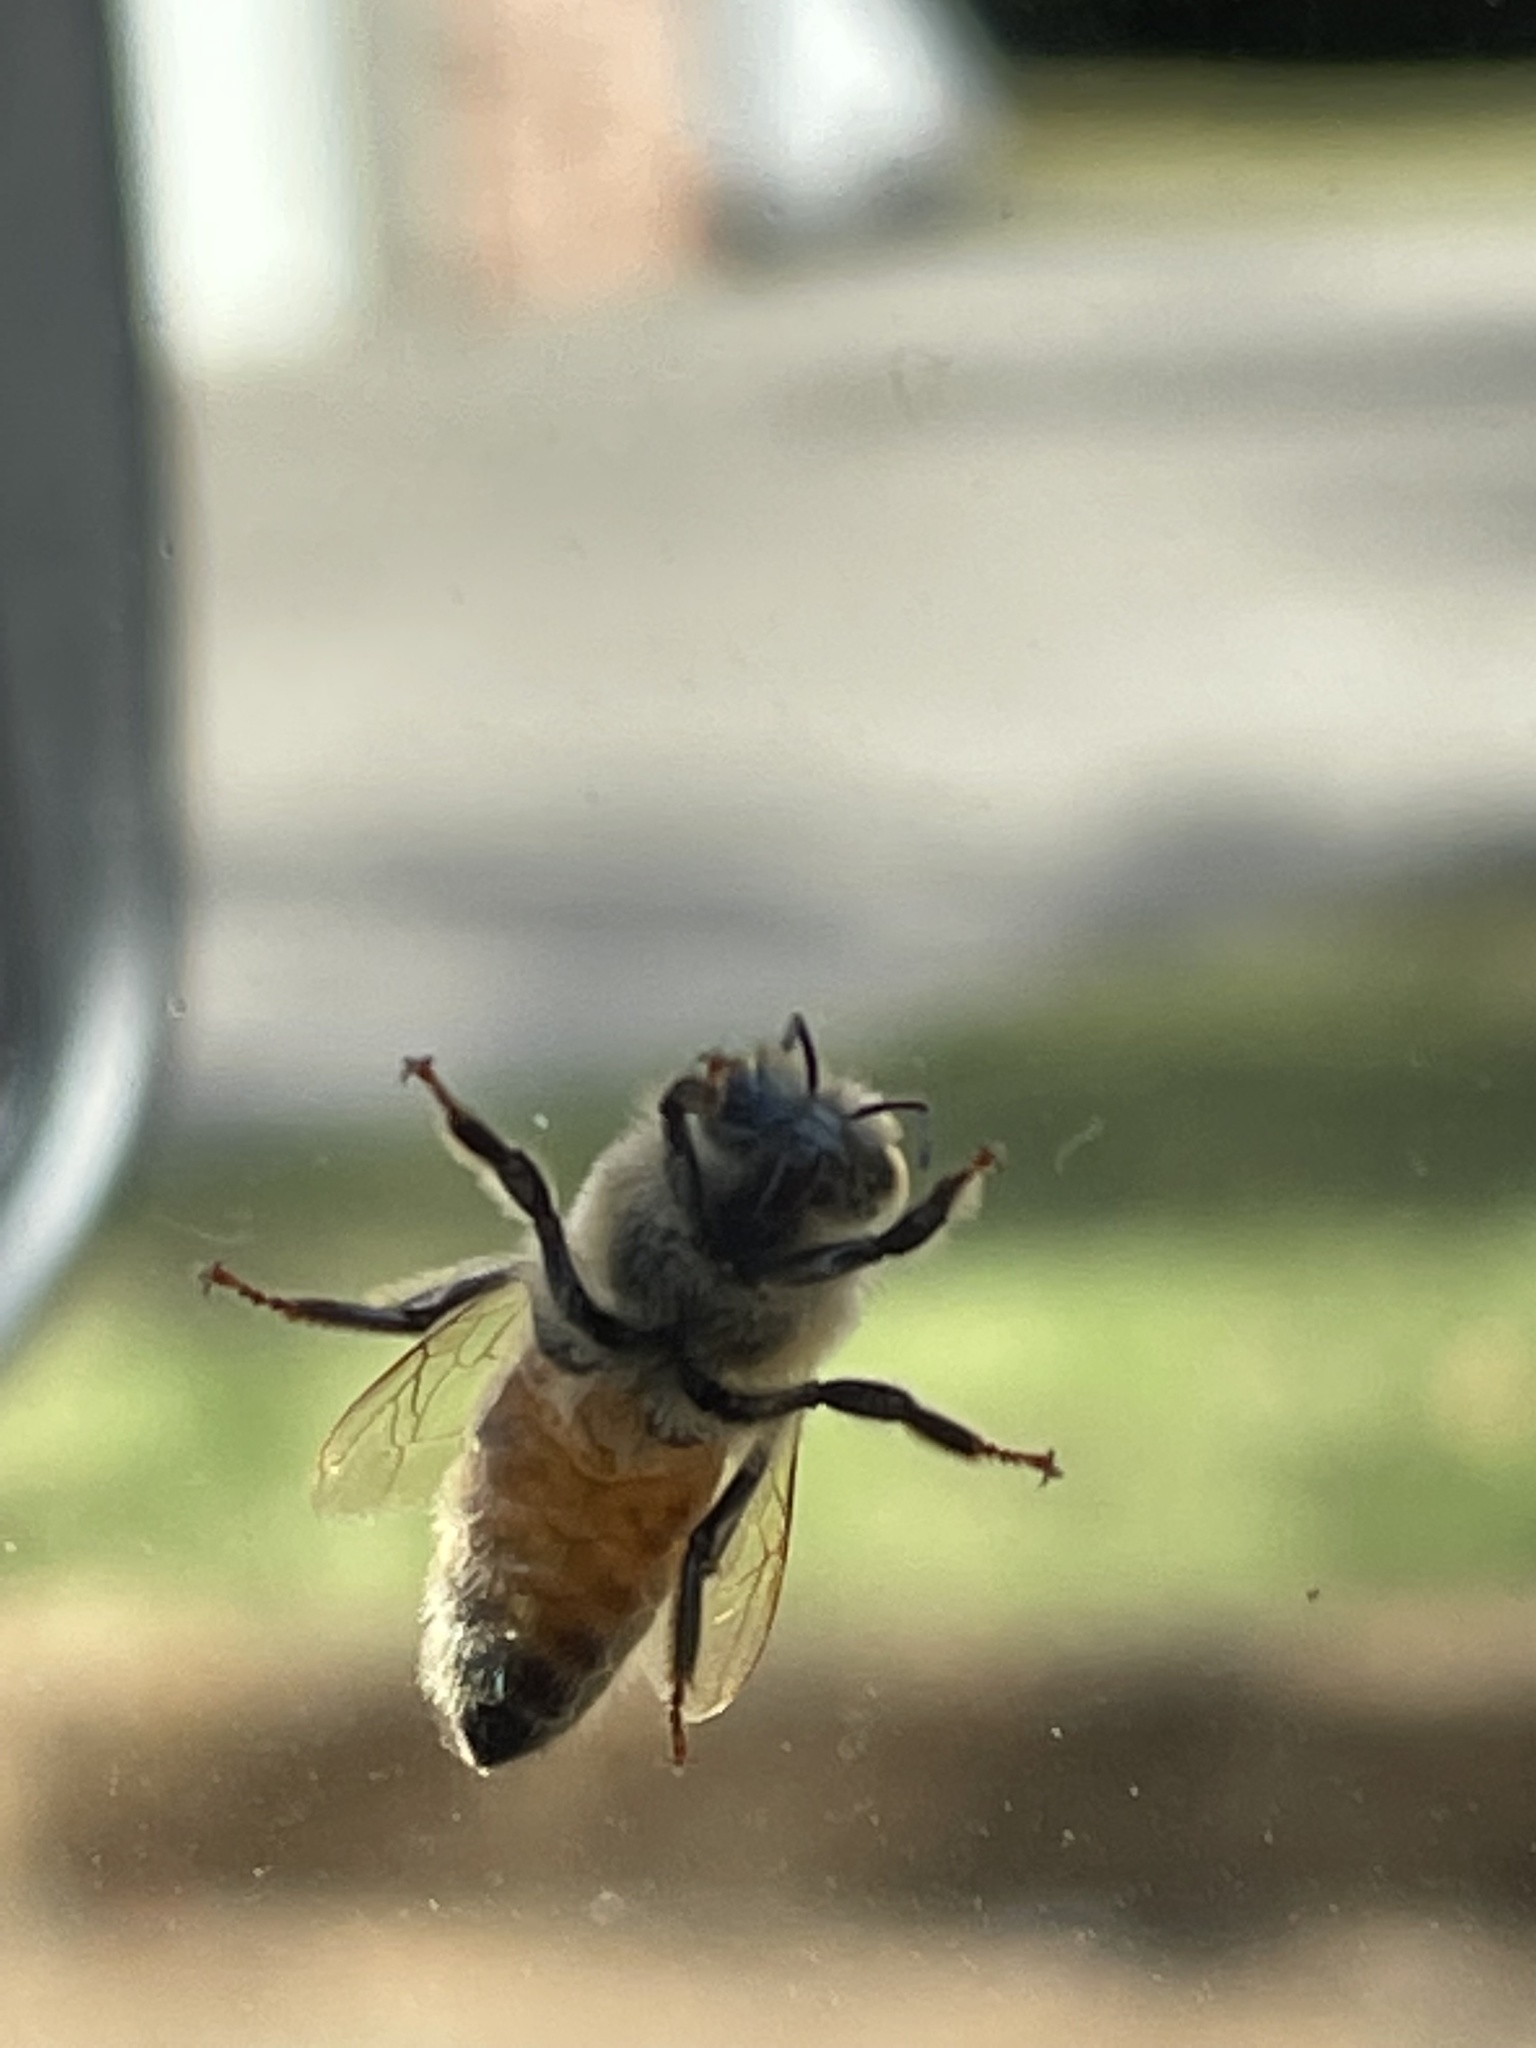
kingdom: Animalia
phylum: Arthropoda
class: Insecta
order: Hymenoptera
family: Apidae
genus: Apis
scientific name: Apis mellifera
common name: Honey bee
